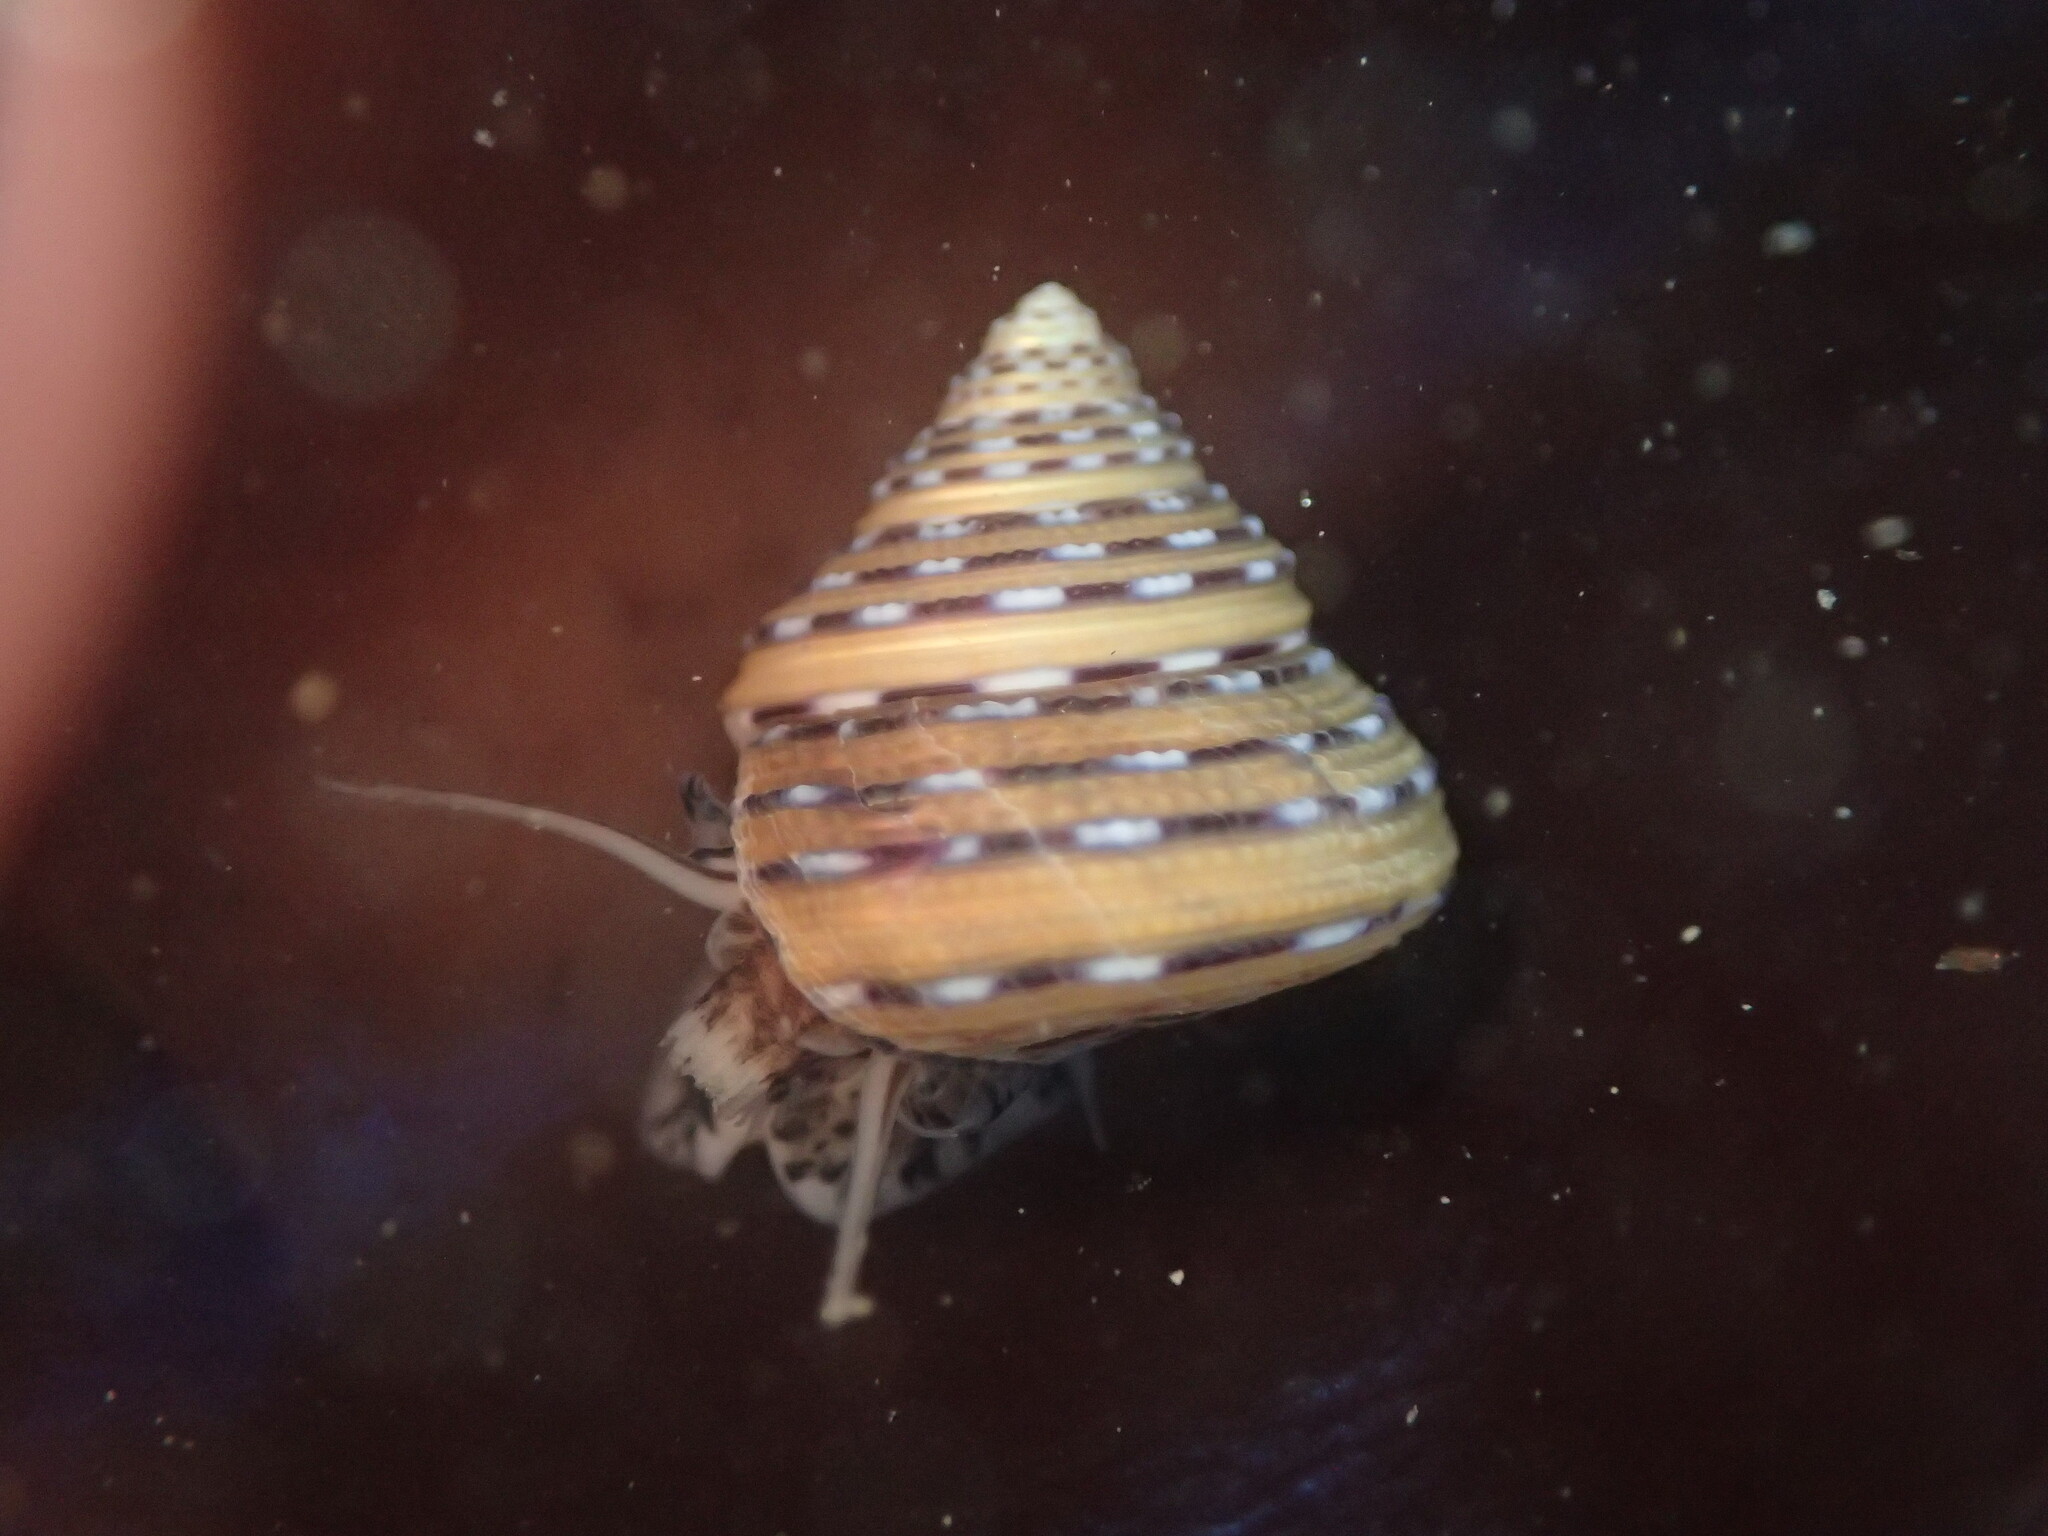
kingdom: Animalia
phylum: Mollusca
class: Gastropoda
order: Trochida
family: Calliostomatidae
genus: Calliostoma
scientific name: Calliostoma tricolor
